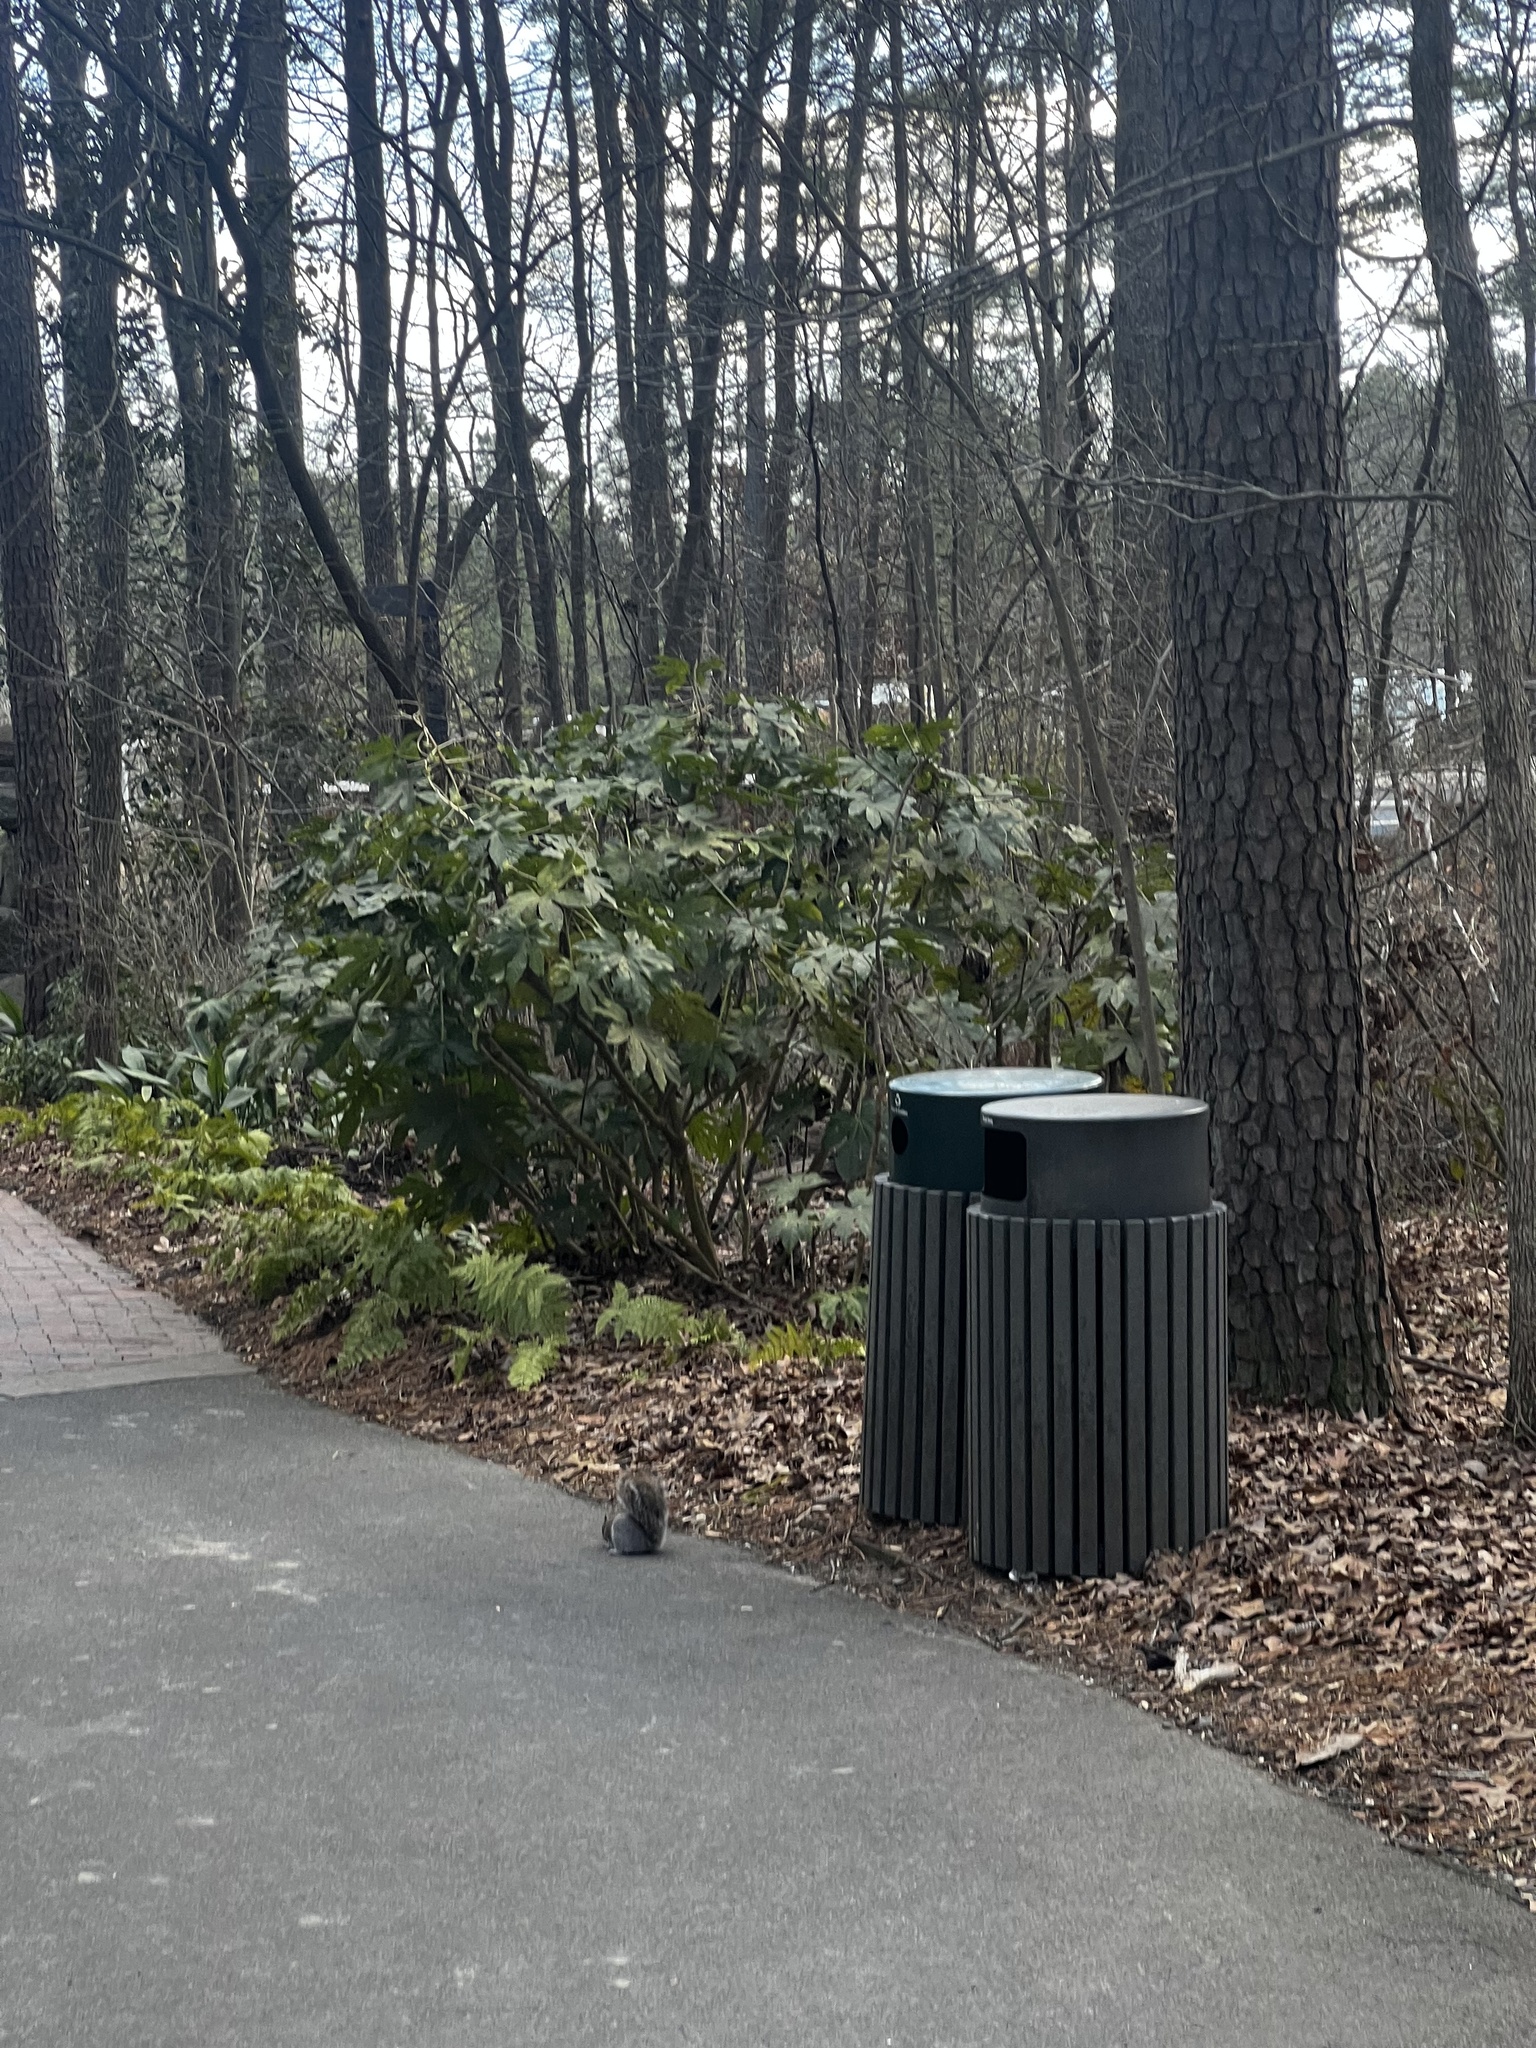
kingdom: Animalia
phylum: Chordata
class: Mammalia
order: Rodentia
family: Sciuridae
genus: Sciurus
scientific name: Sciurus carolinensis
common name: Eastern gray squirrel
